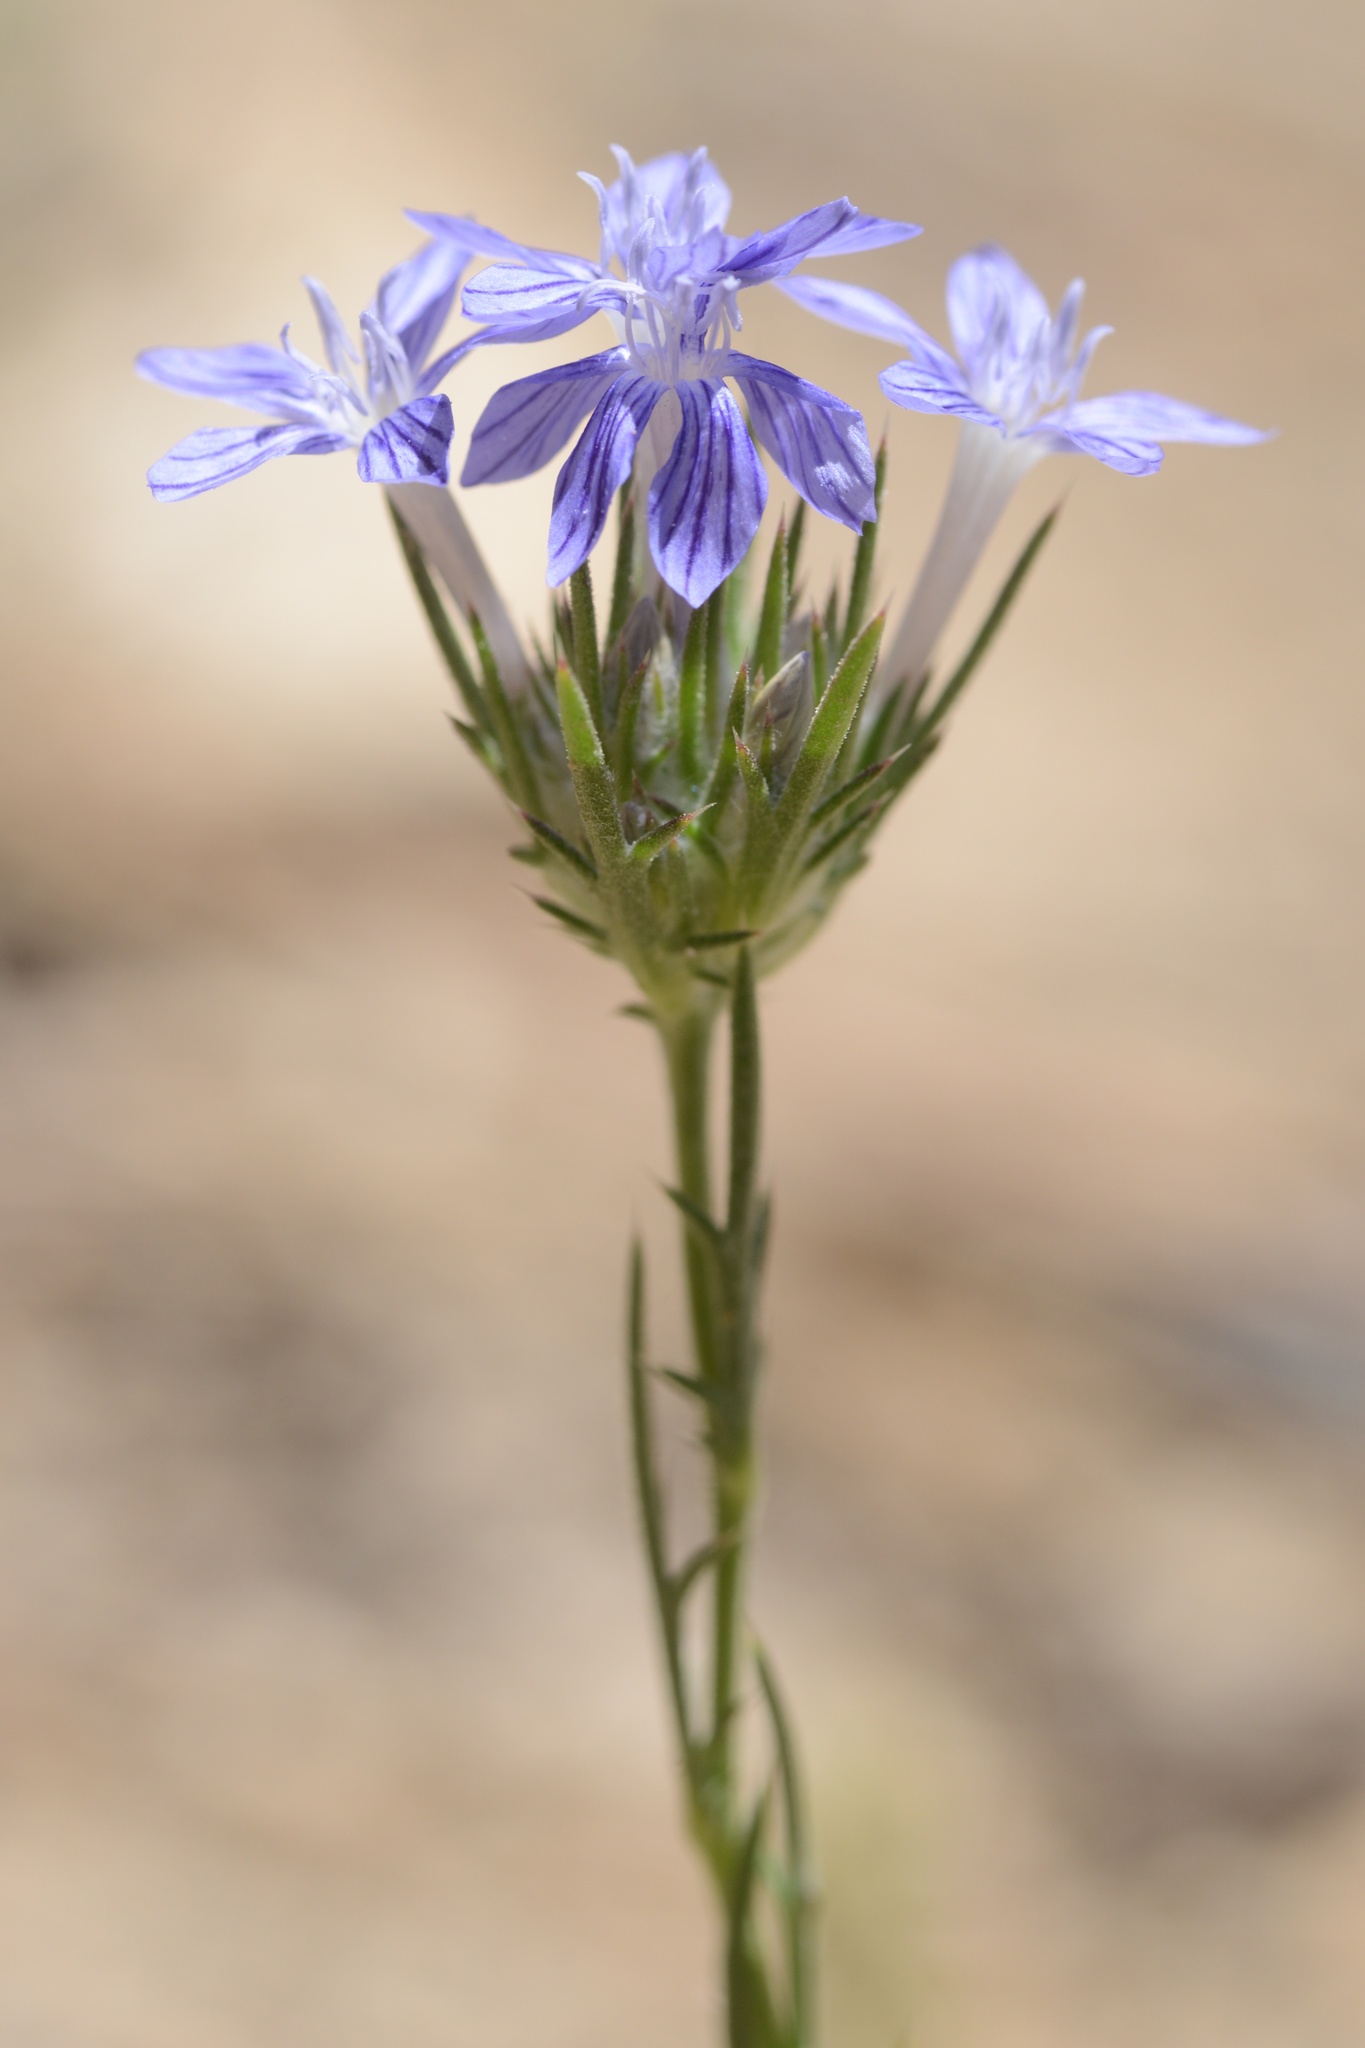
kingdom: Plantae
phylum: Tracheophyta
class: Magnoliopsida
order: Ericales
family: Polemoniaceae
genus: Eriastrum
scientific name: Eriastrum densifolium
